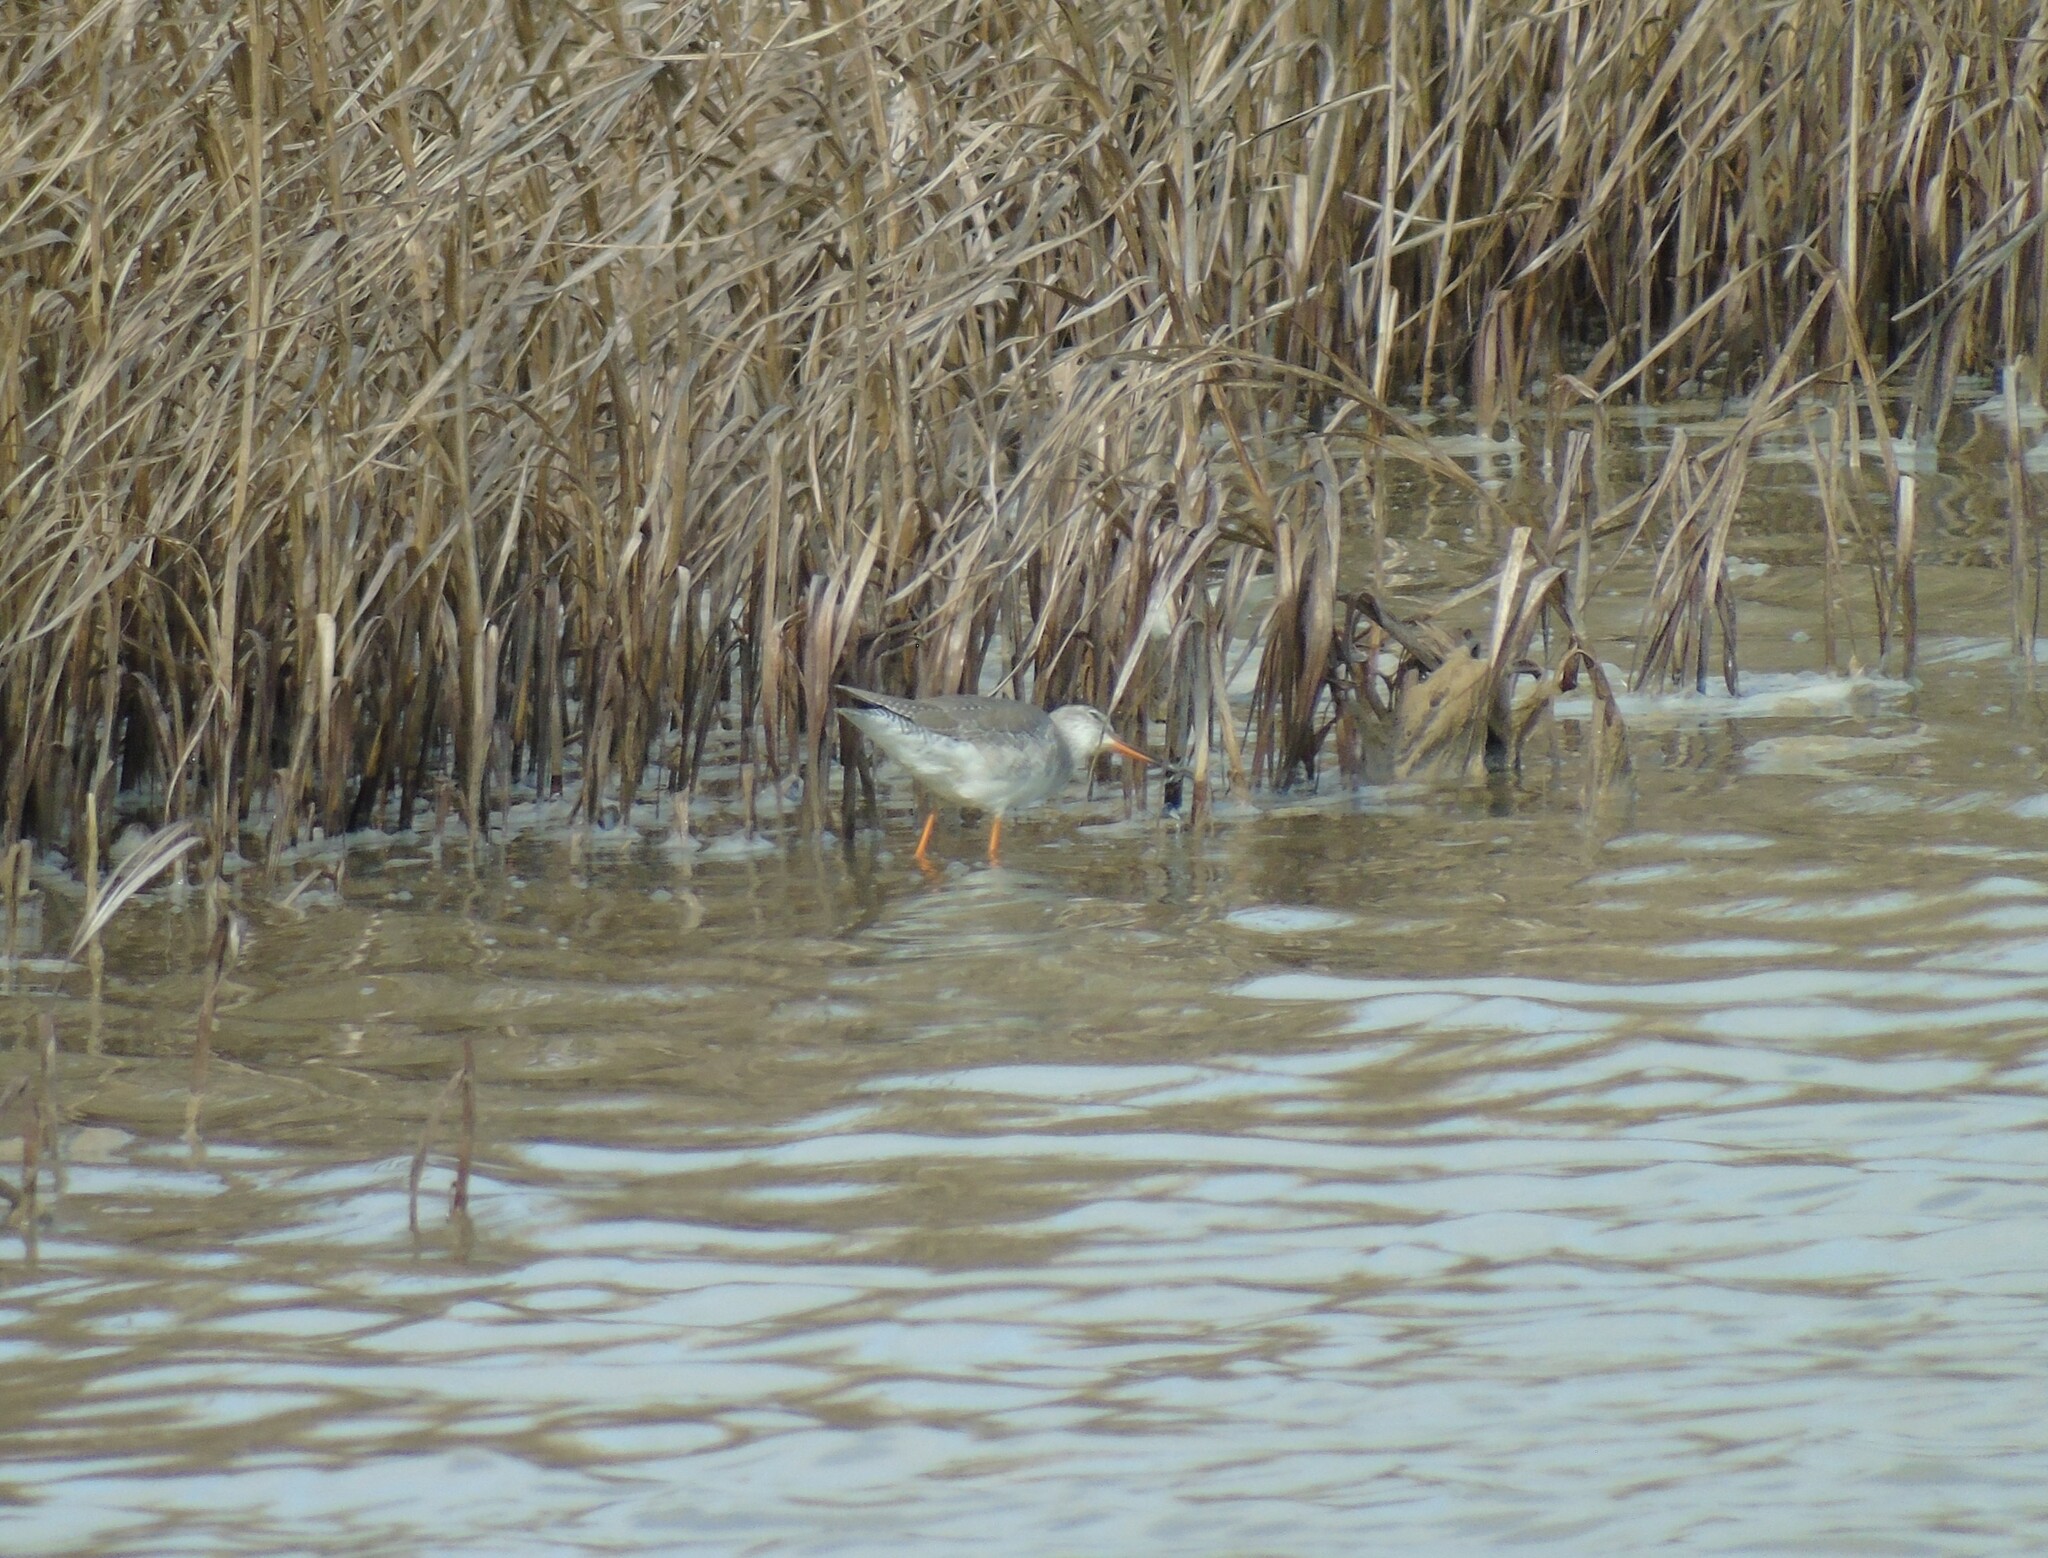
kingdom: Animalia
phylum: Chordata
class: Aves
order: Charadriiformes
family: Scolopacidae
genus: Tringa
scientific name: Tringa erythropus
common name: Spotted redshank
